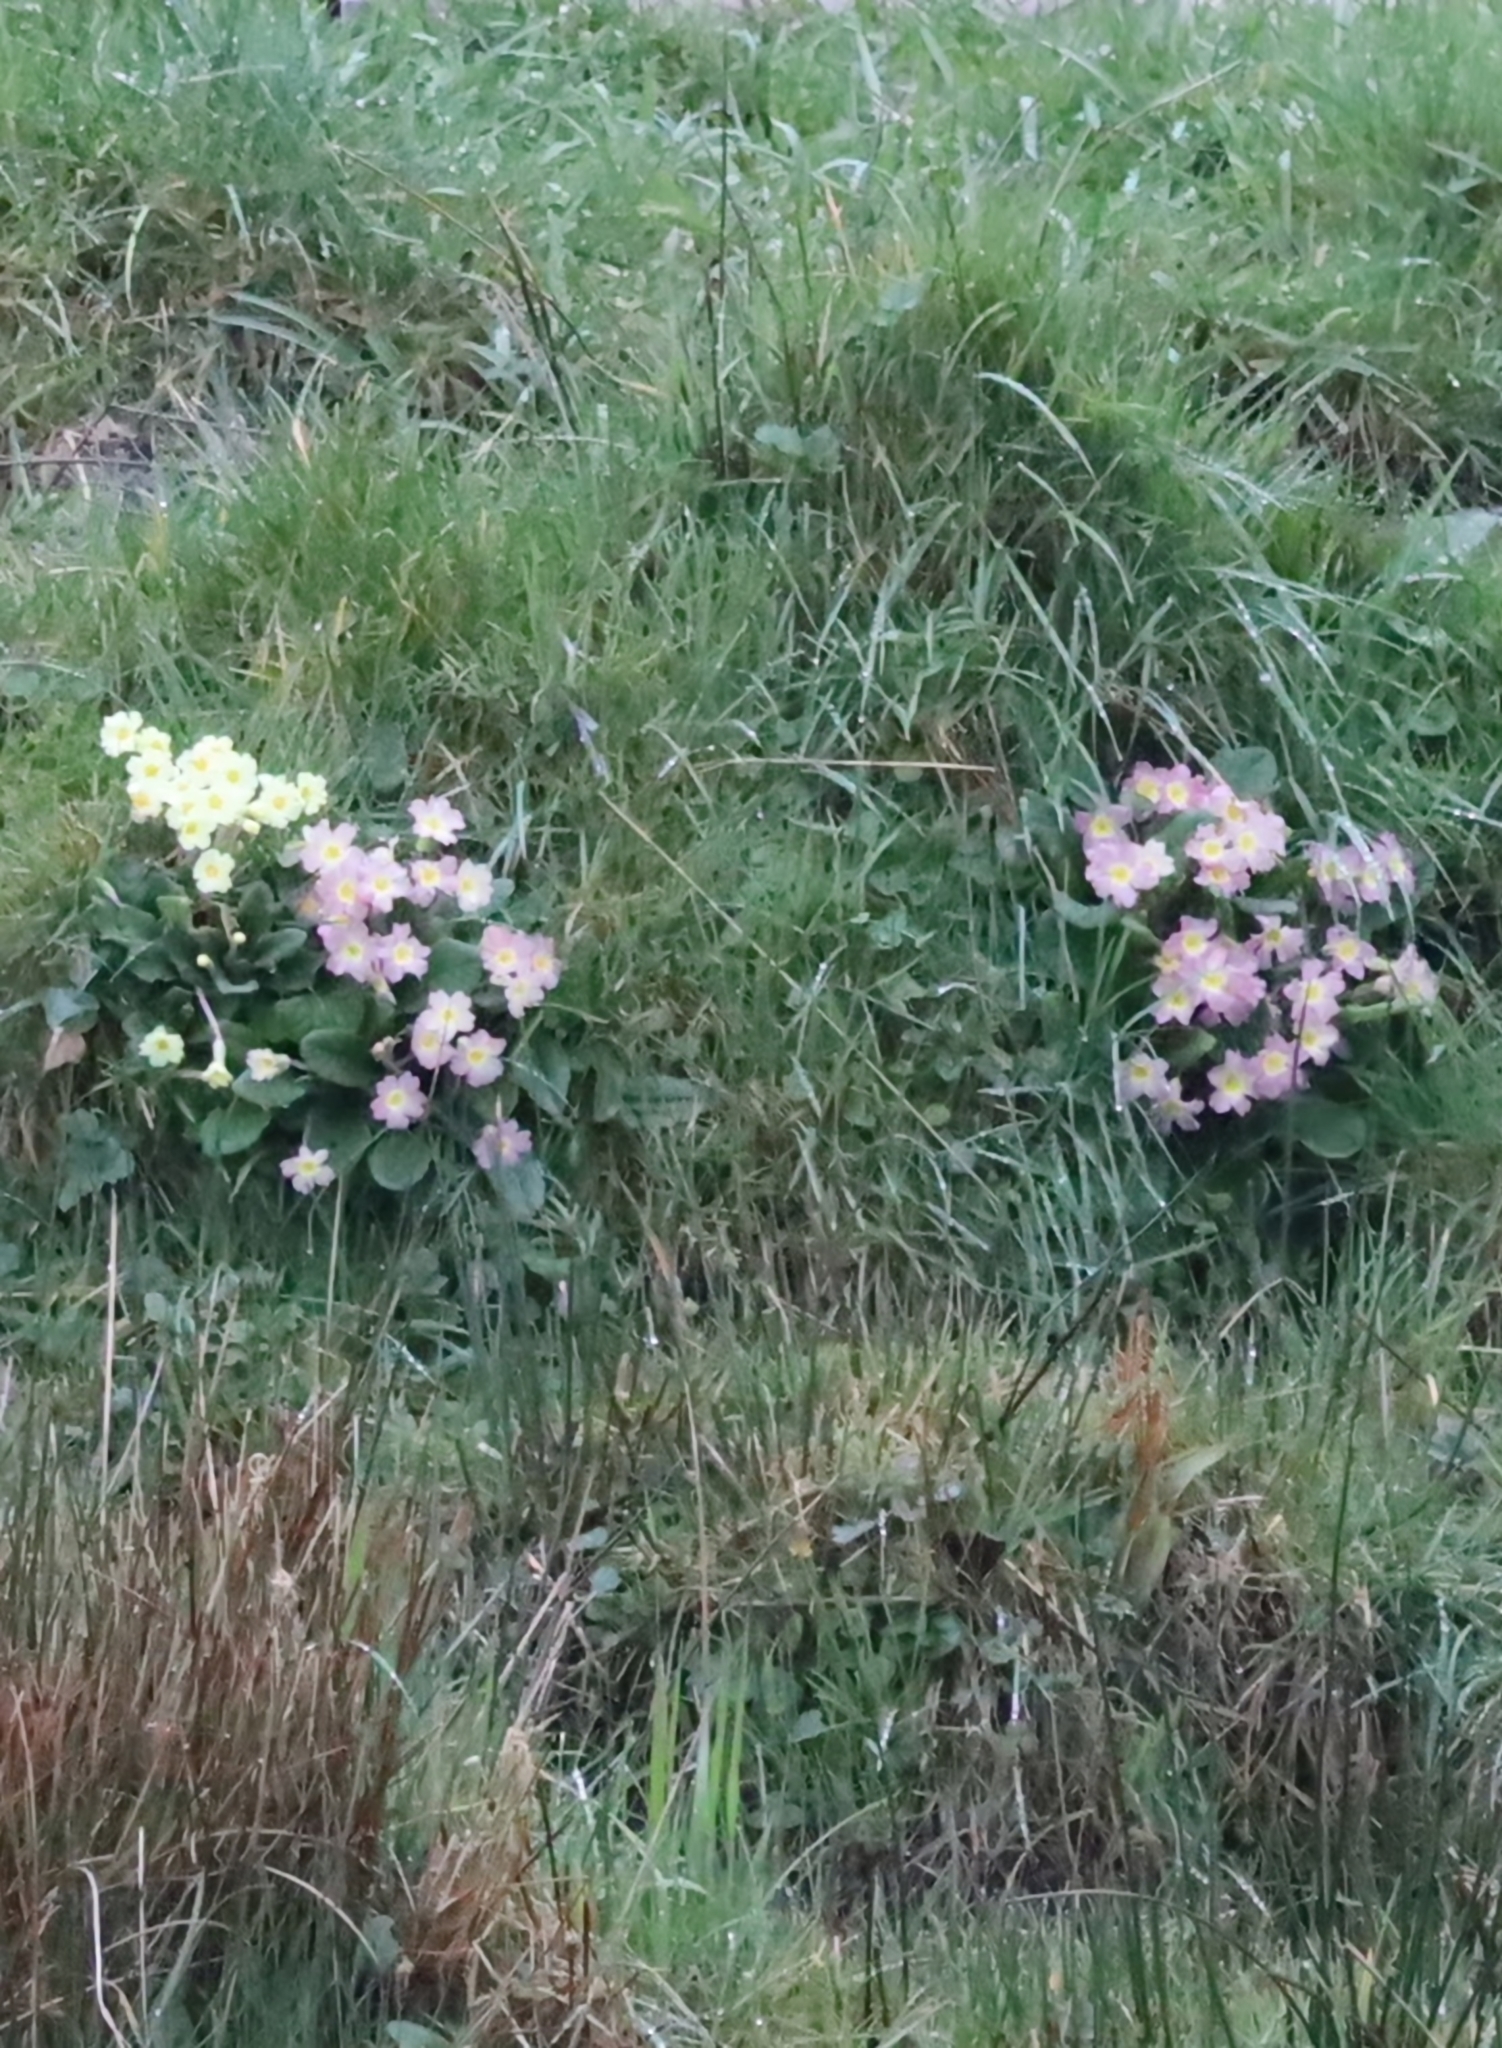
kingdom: Plantae
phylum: Tracheophyta
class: Magnoliopsida
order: Ericales
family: Primulaceae
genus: Primula
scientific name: Primula vulgaris
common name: Primrose
